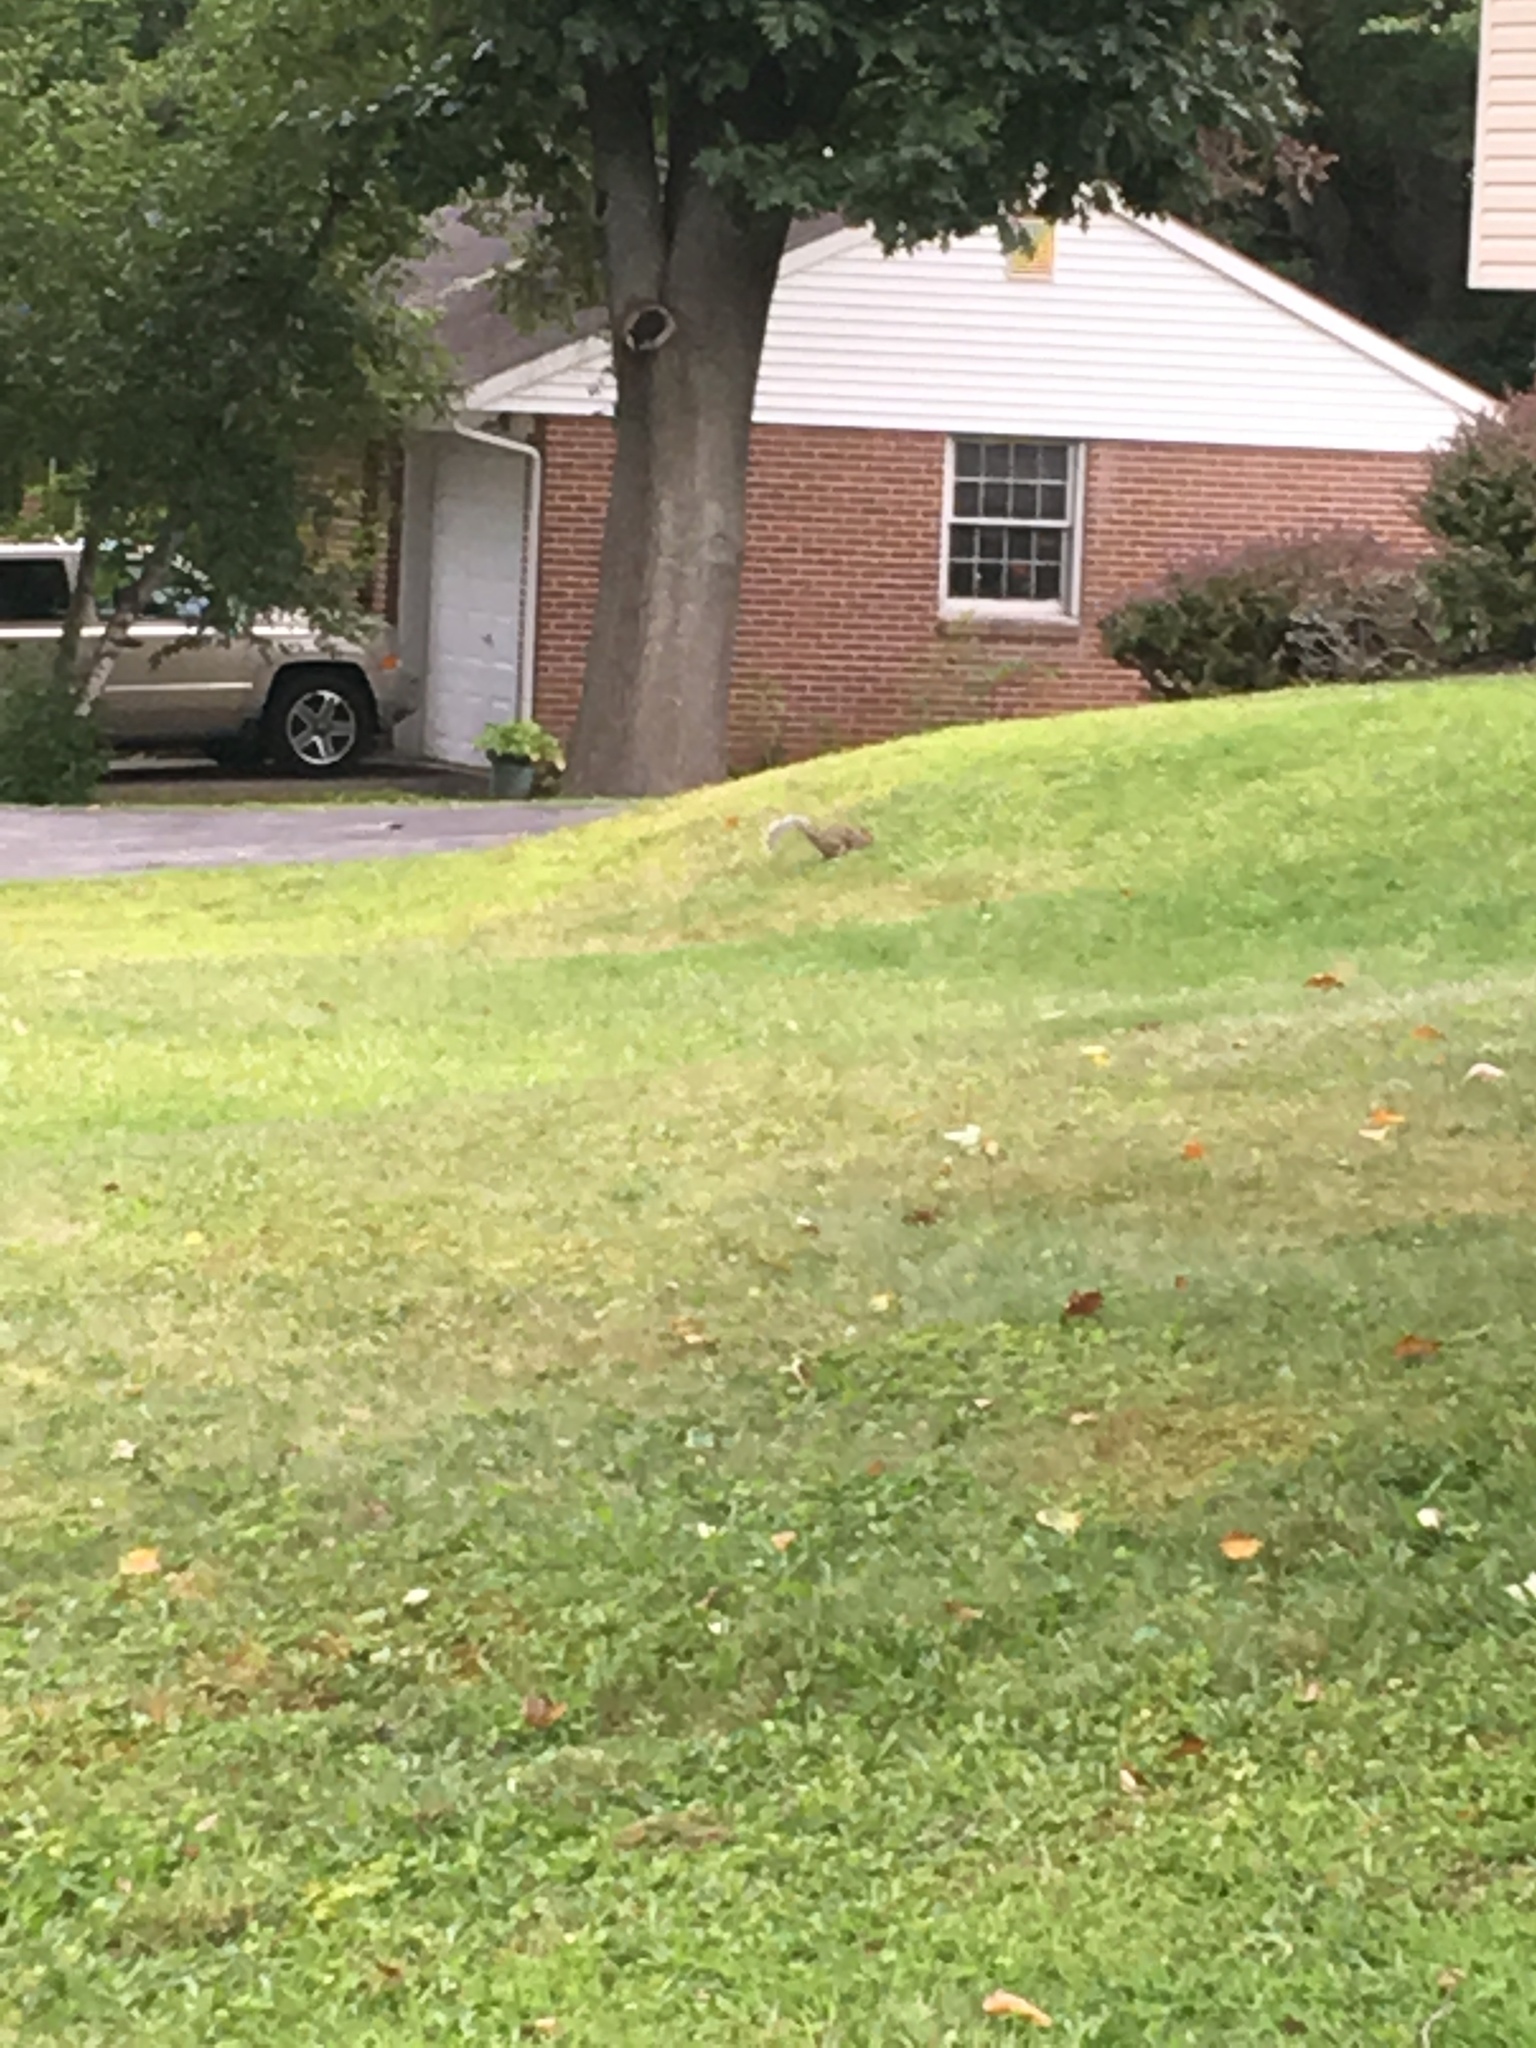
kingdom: Animalia
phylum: Chordata
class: Mammalia
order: Rodentia
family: Sciuridae
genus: Sciurus
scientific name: Sciurus carolinensis
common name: Eastern gray squirrel
